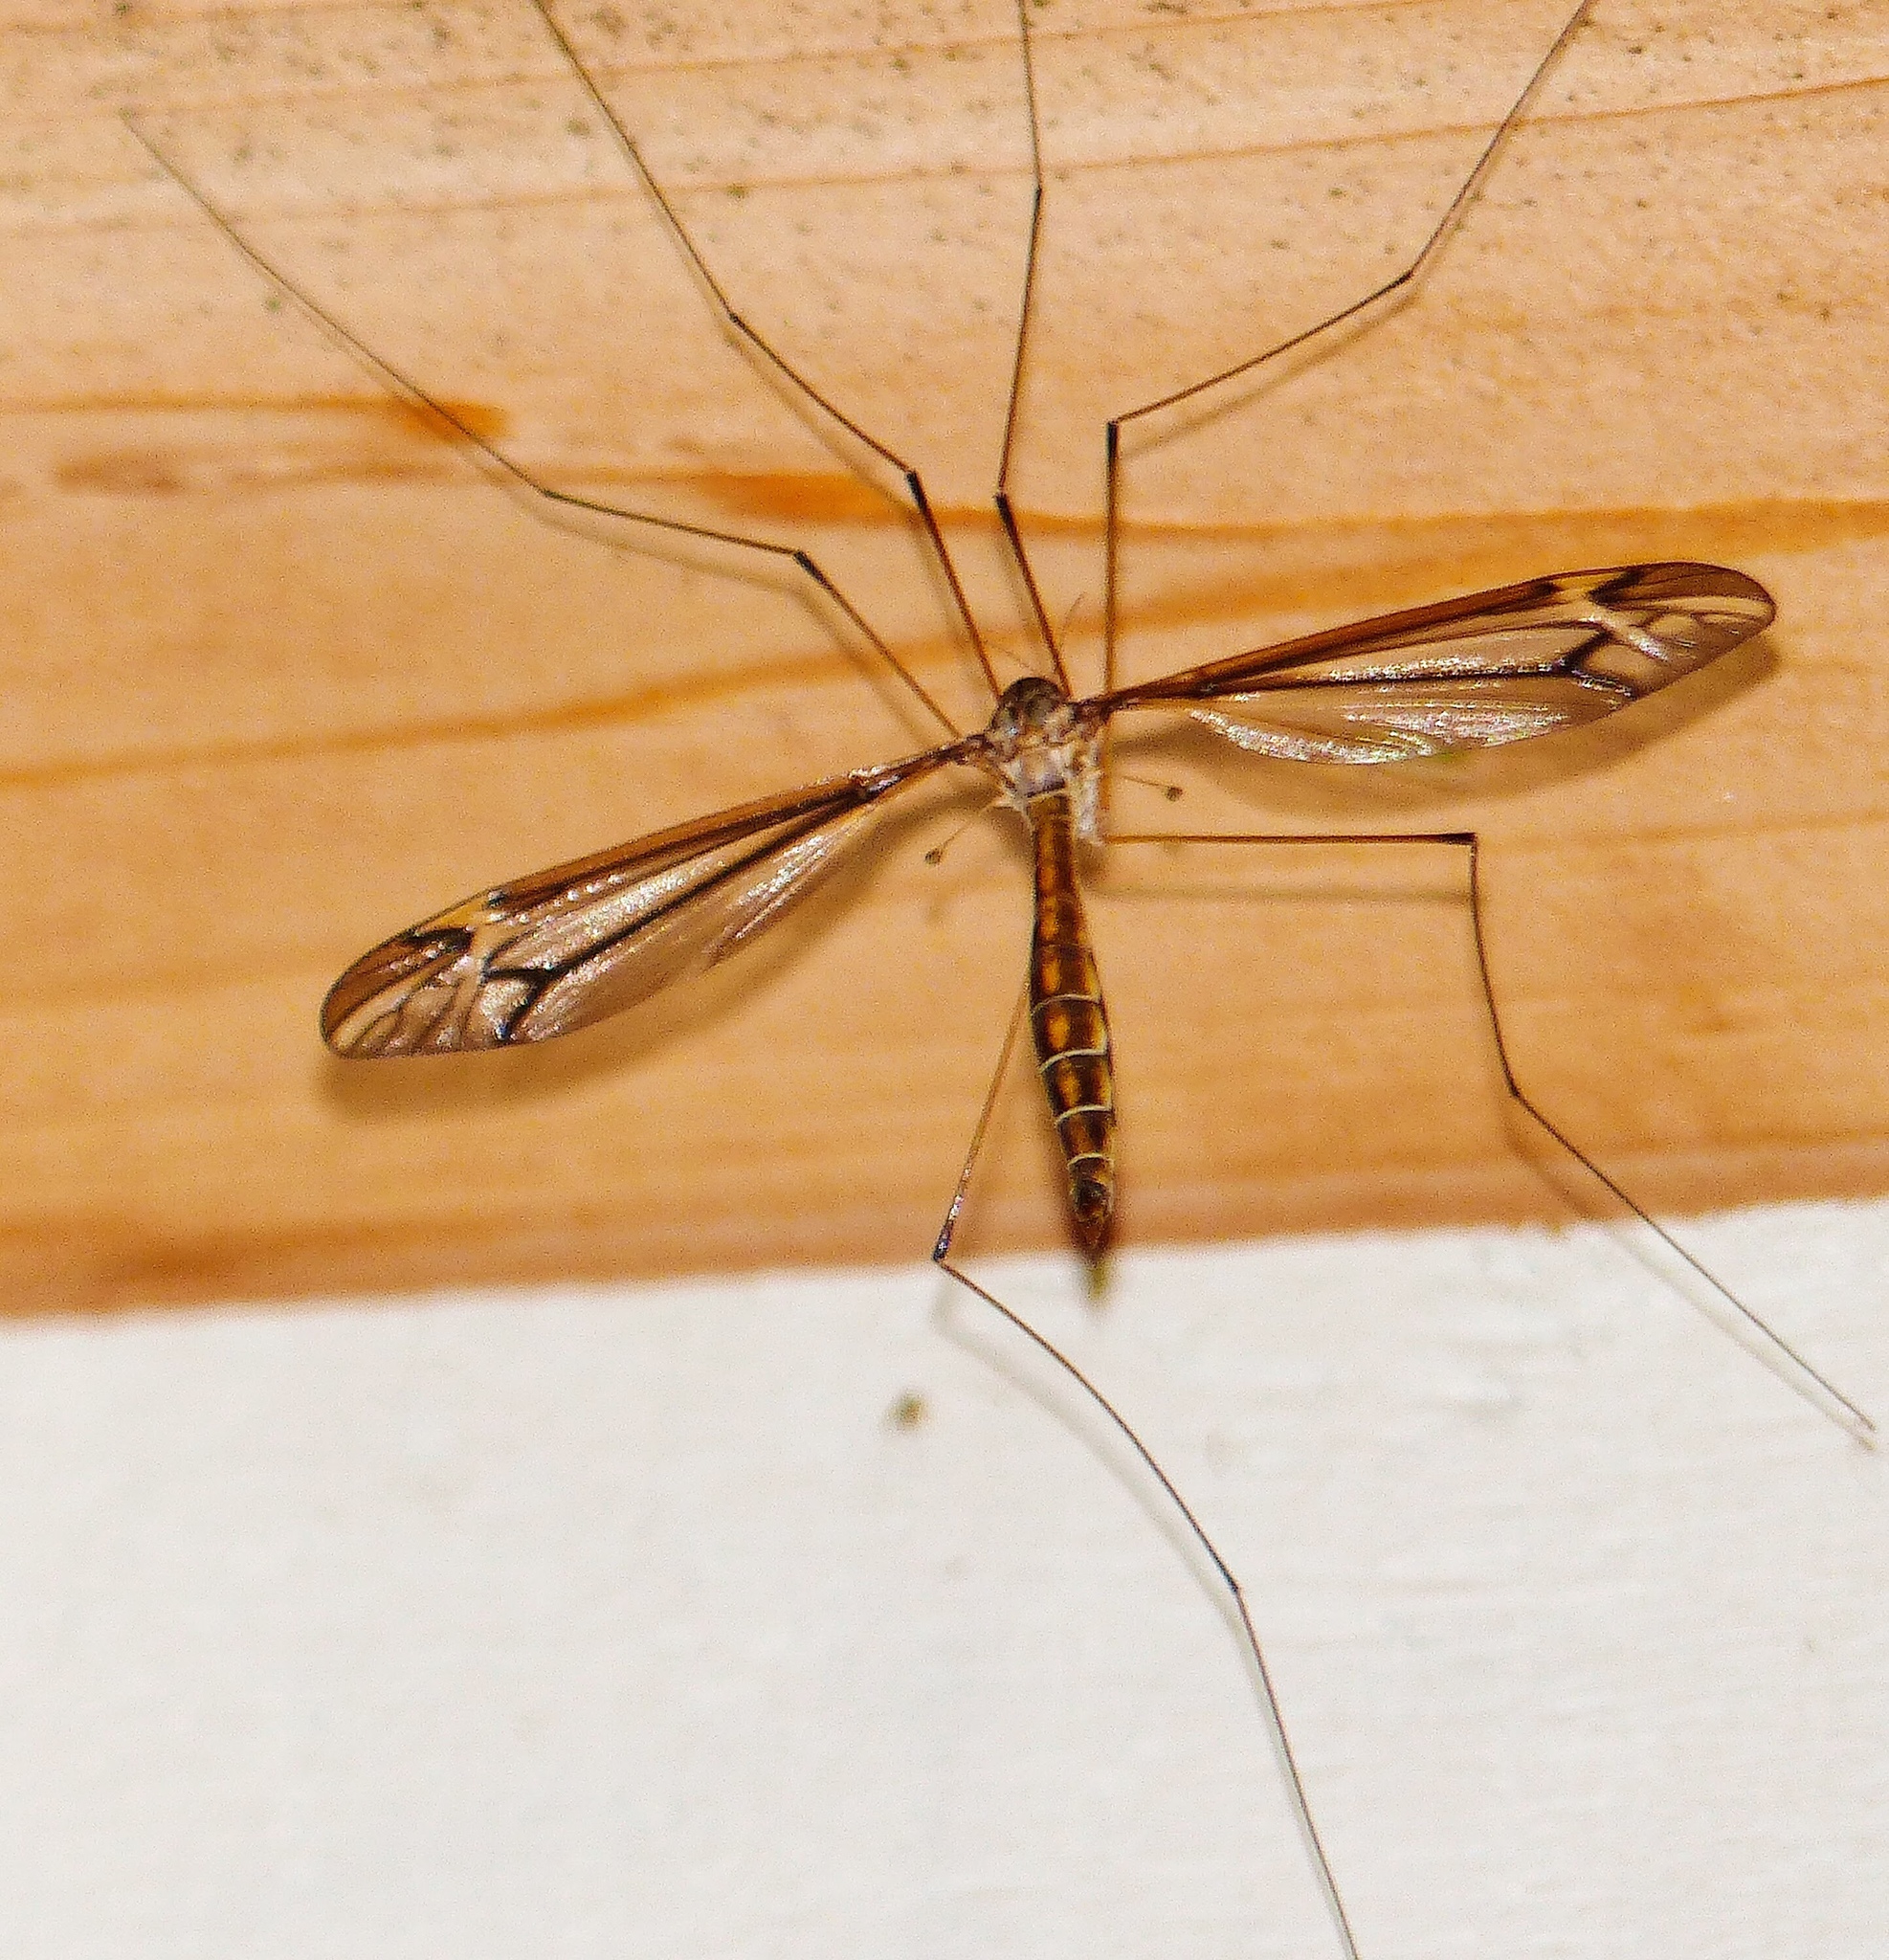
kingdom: Animalia
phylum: Arthropoda
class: Insecta
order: Diptera
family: Tipulidae
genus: Tipula
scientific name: Tipula furca
